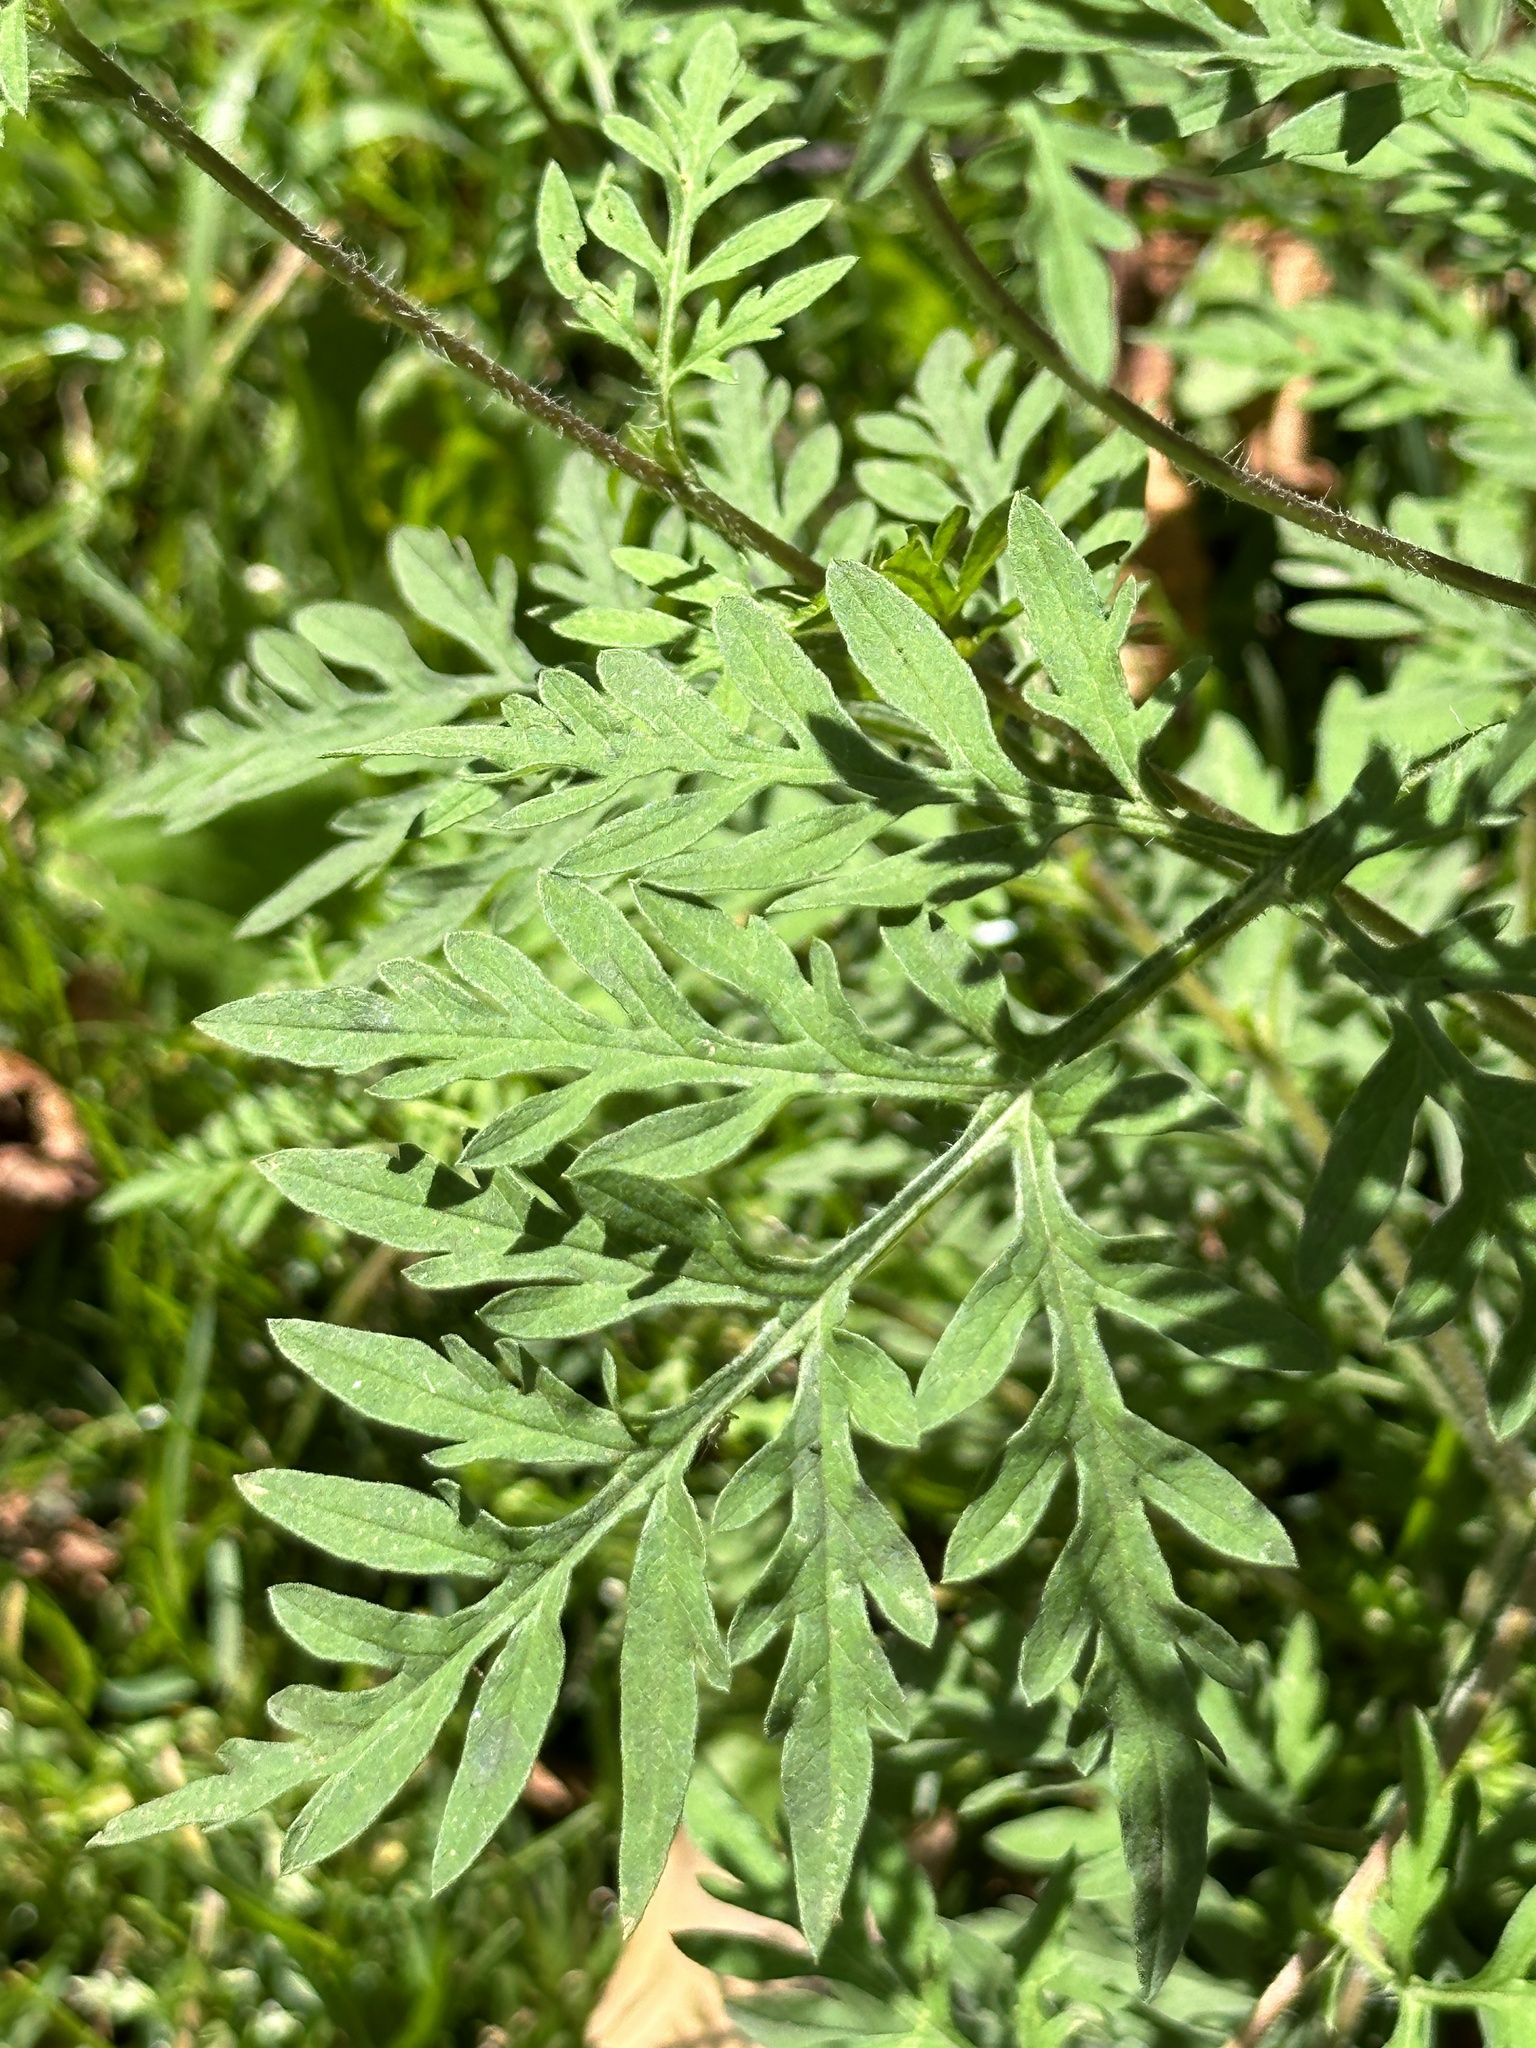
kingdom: Plantae
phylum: Tracheophyta
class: Magnoliopsida
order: Asterales
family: Asteraceae
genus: Ambrosia
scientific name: Ambrosia artemisiifolia
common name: Annual ragweed
